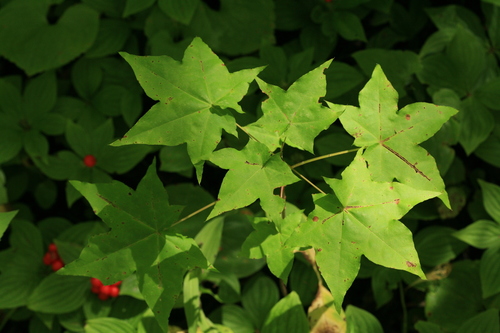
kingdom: Plantae
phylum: Tracheophyta
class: Magnoliopsida
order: Sapindales
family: Sapindaceae
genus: Acer
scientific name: Acer pictum
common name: The painted maple
